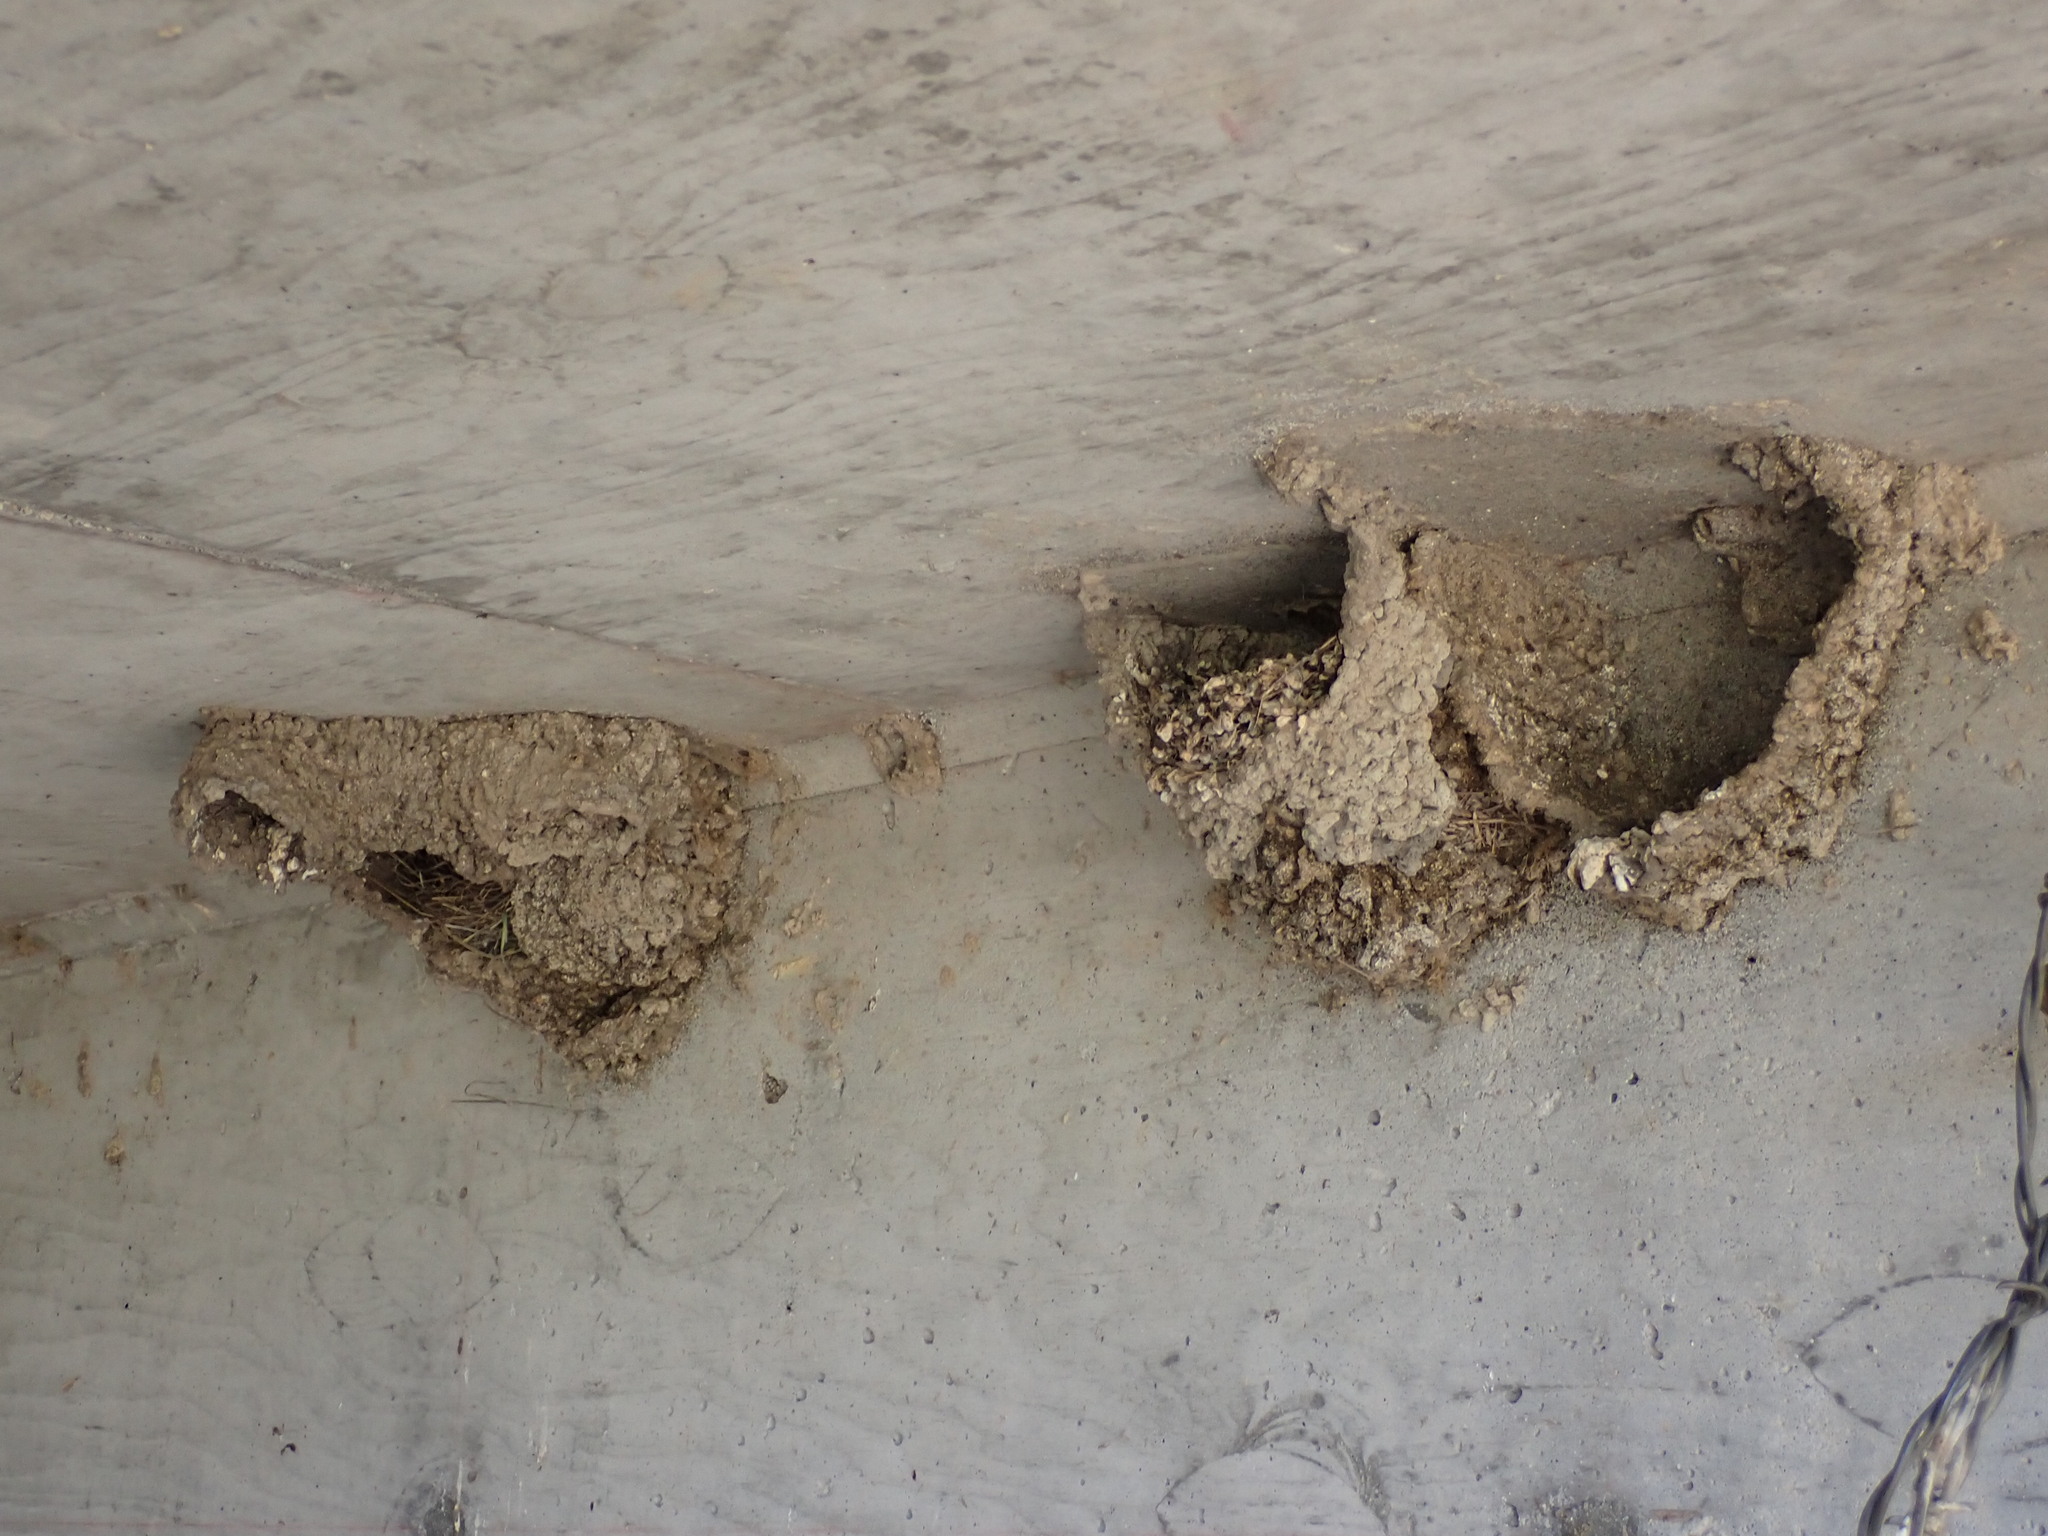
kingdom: Animalia
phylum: Chordata
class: Aves
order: Passeriformes
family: Hirundinidae
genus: Petrochelidon
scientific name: Petrochelidon pyrrhonota
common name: American cliff swallow
